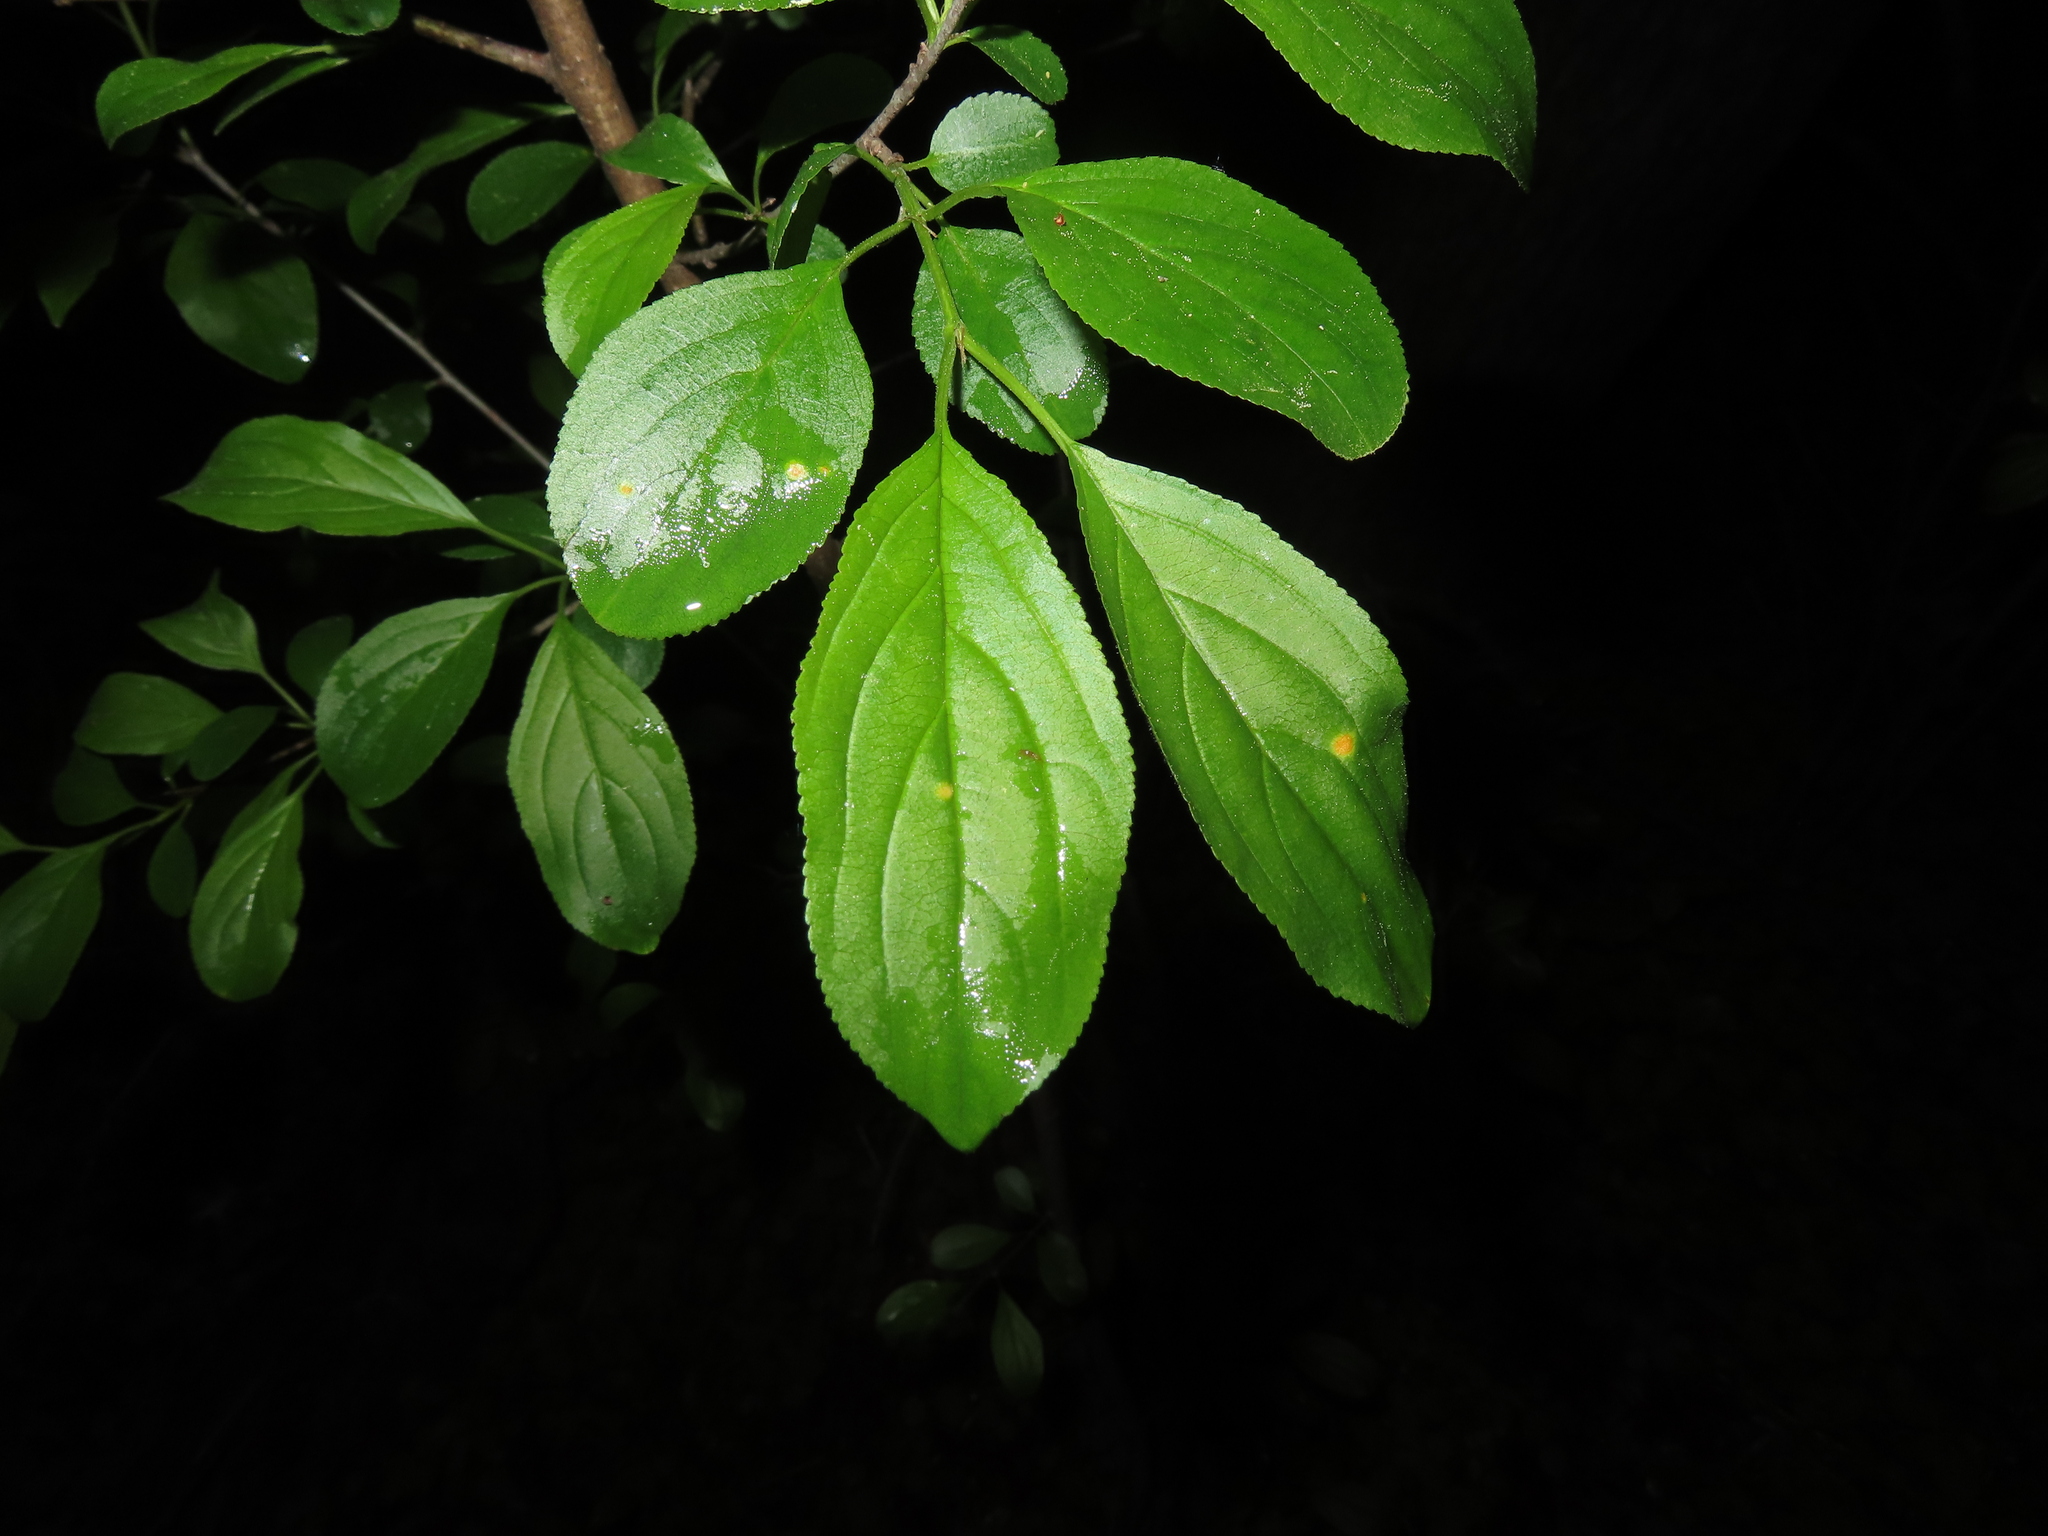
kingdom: Plantae
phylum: Tracheophyta
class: Magnoliopsida
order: Rosales
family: Rhamnaceae
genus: Rhamnus
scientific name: Rhamnus cathartica
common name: Common buckthorn
